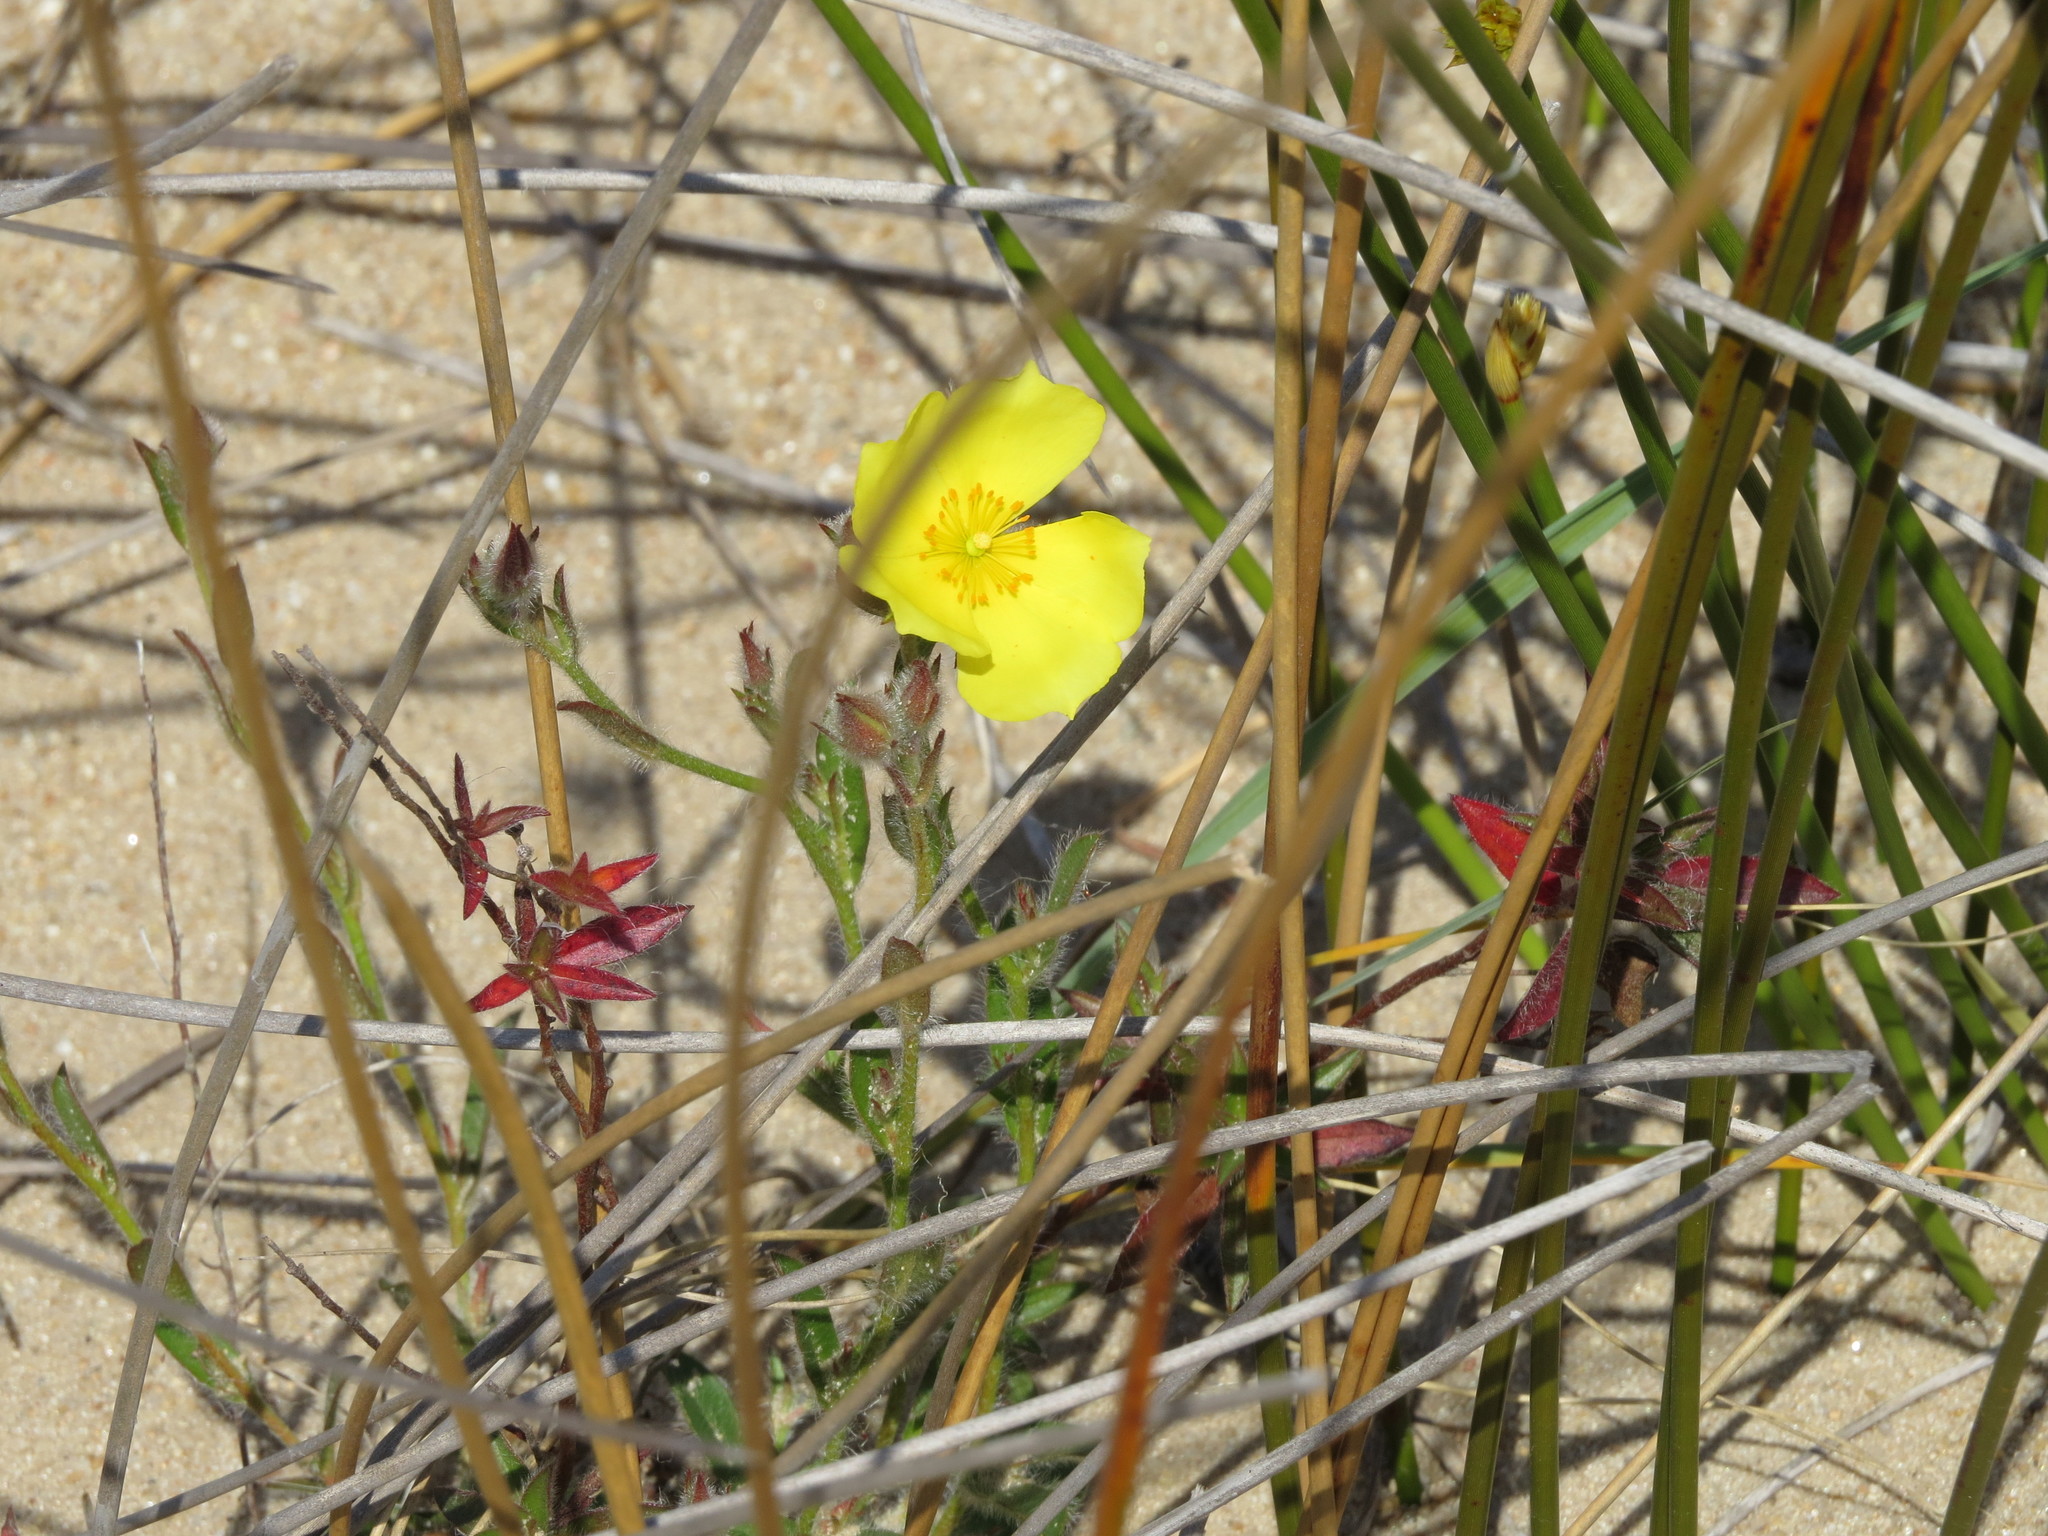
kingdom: Plantae
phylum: Tracheophyta
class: Magnoliopsida
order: Malvales
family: Cistaceae
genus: Crocanthemum
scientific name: Crocanthemum brasiliensis
